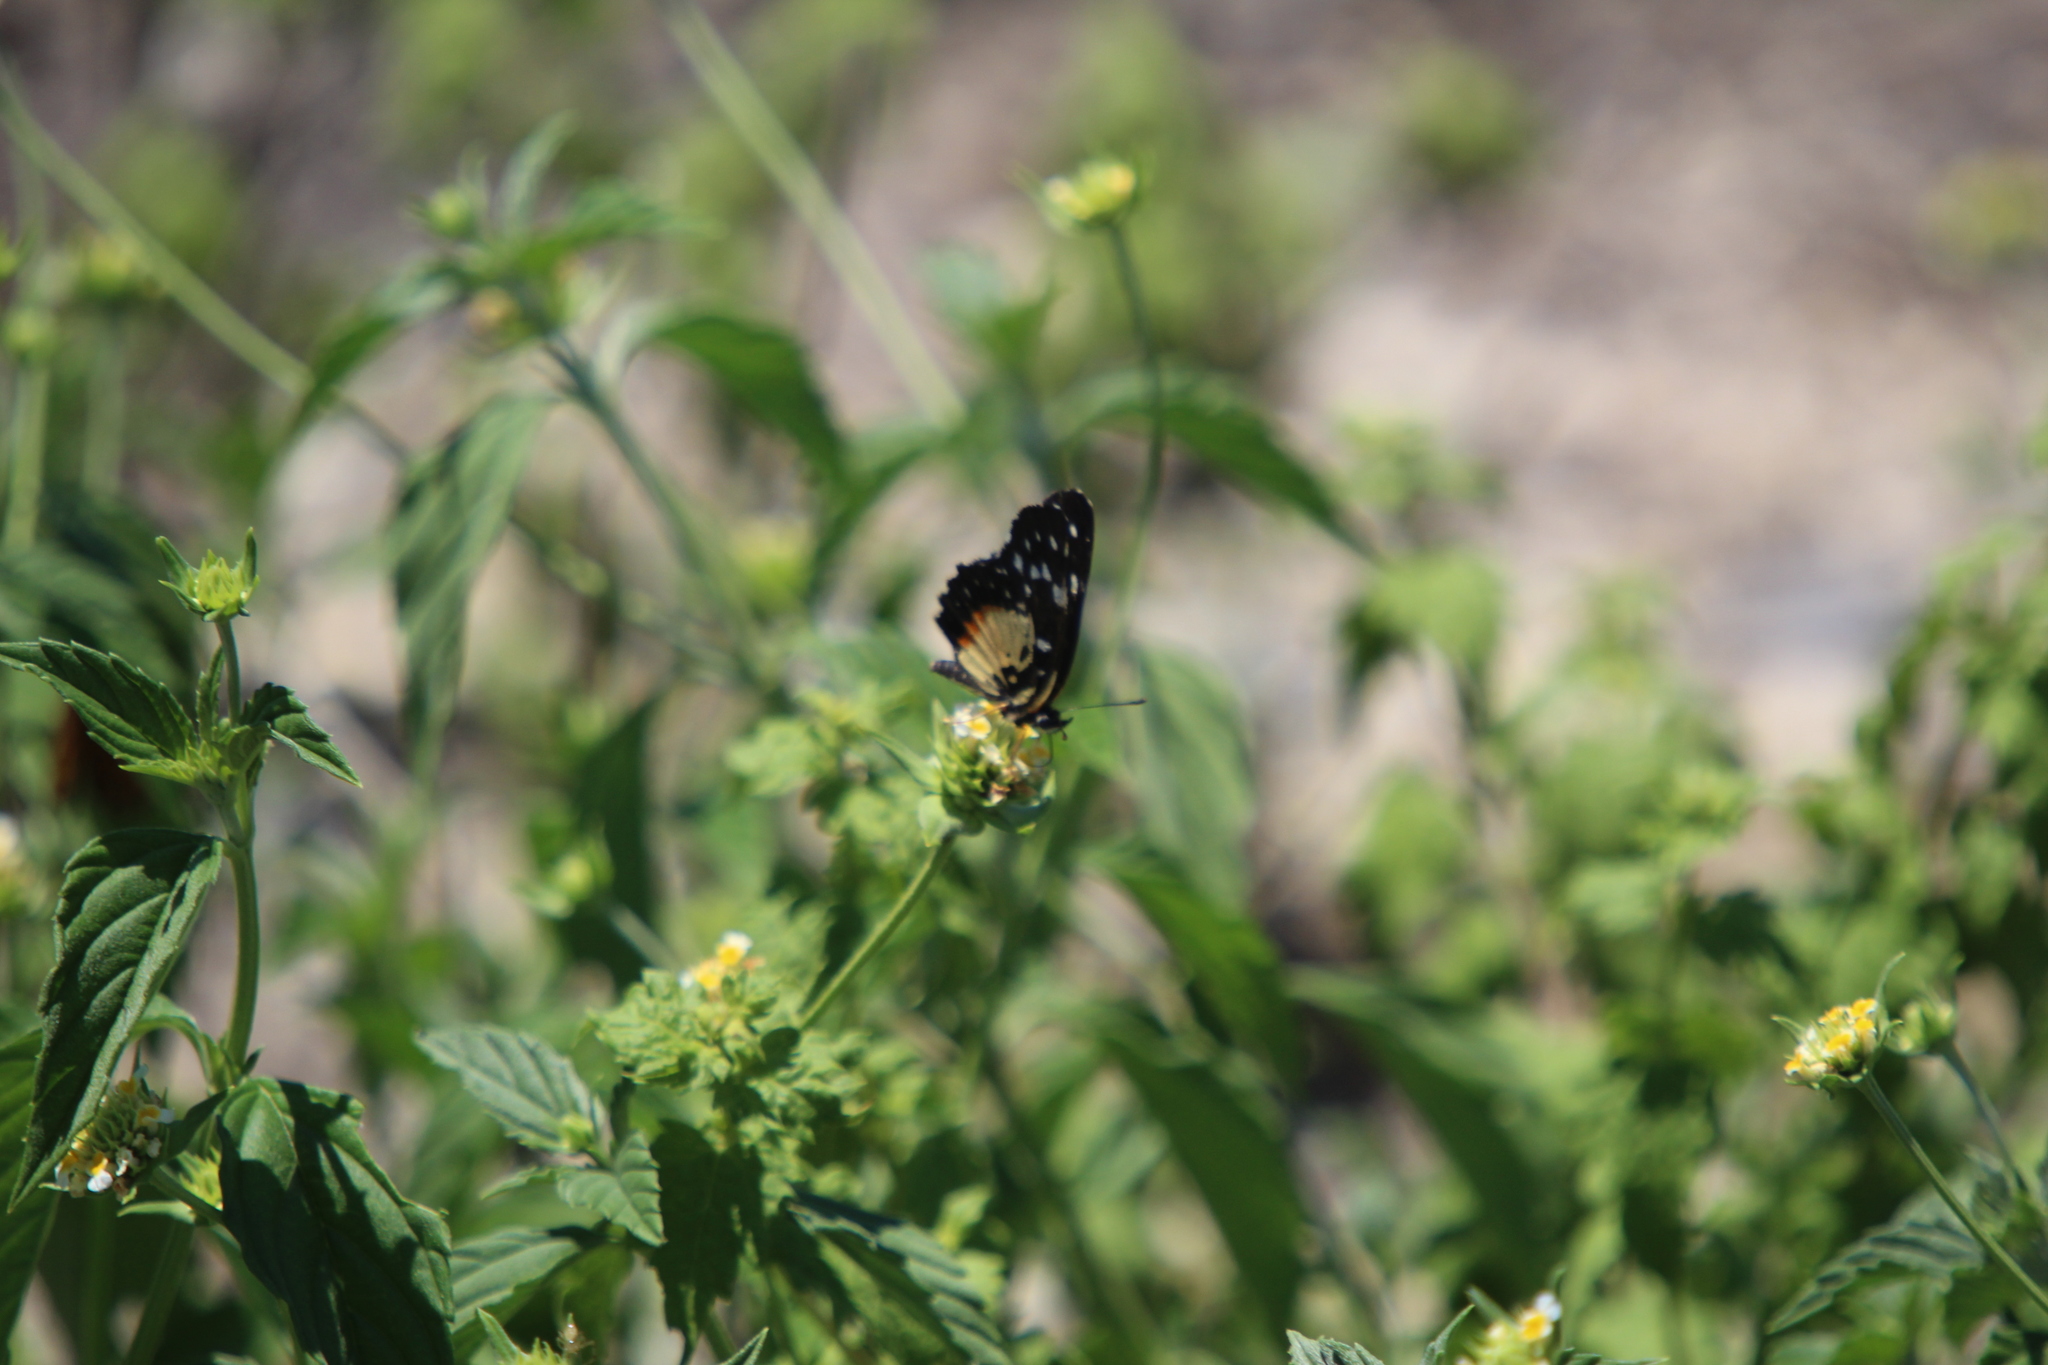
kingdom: Animalia
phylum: Arthropoda
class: Insecta
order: Lepidoptera
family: Nymphalidae
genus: Chlosyne
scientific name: Chlosyne rosita
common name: Rosita patch
